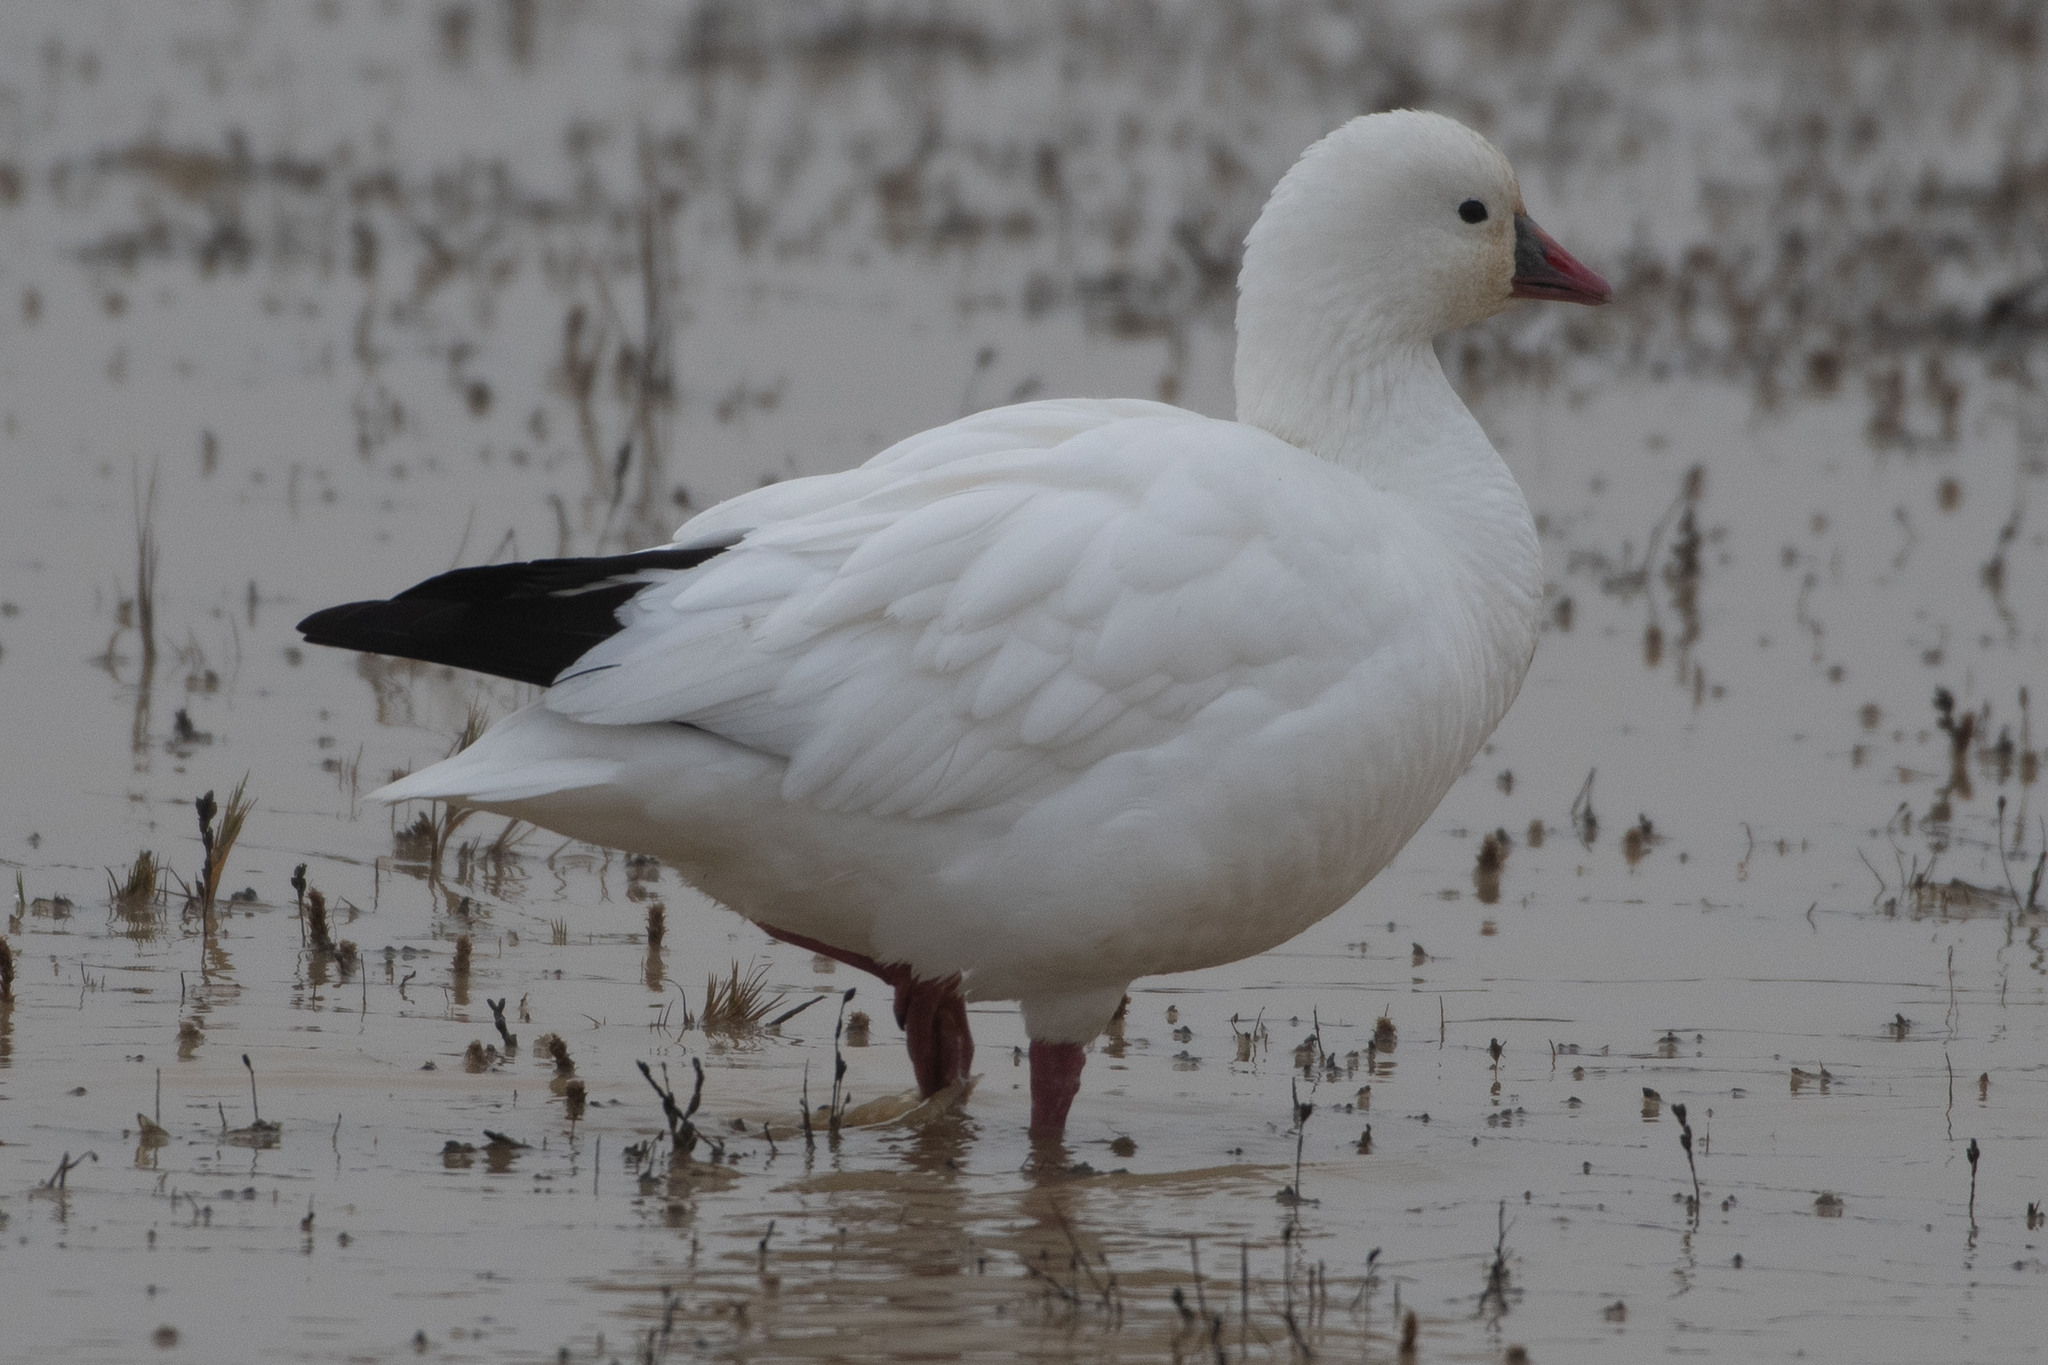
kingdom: Animalia
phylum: Chordata
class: Aves
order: Anseriformes
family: Anatidae
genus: Anser
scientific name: Anser rossii
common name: Ross's goose
